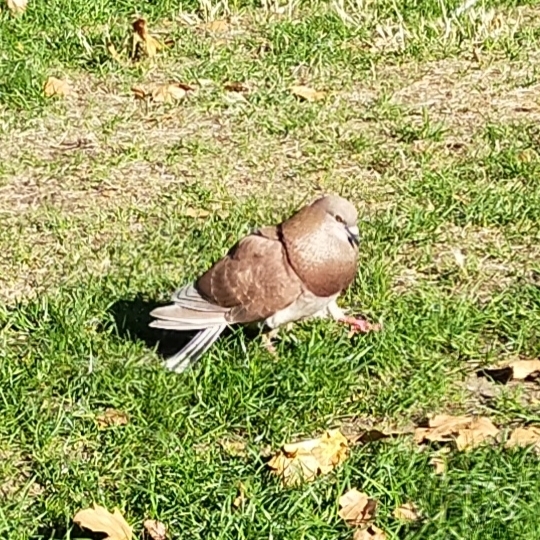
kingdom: Animalia
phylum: Chordata
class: Aves
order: Columbiformes
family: Columbidae
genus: Columba
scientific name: Columba livia
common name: Rock pigeon
